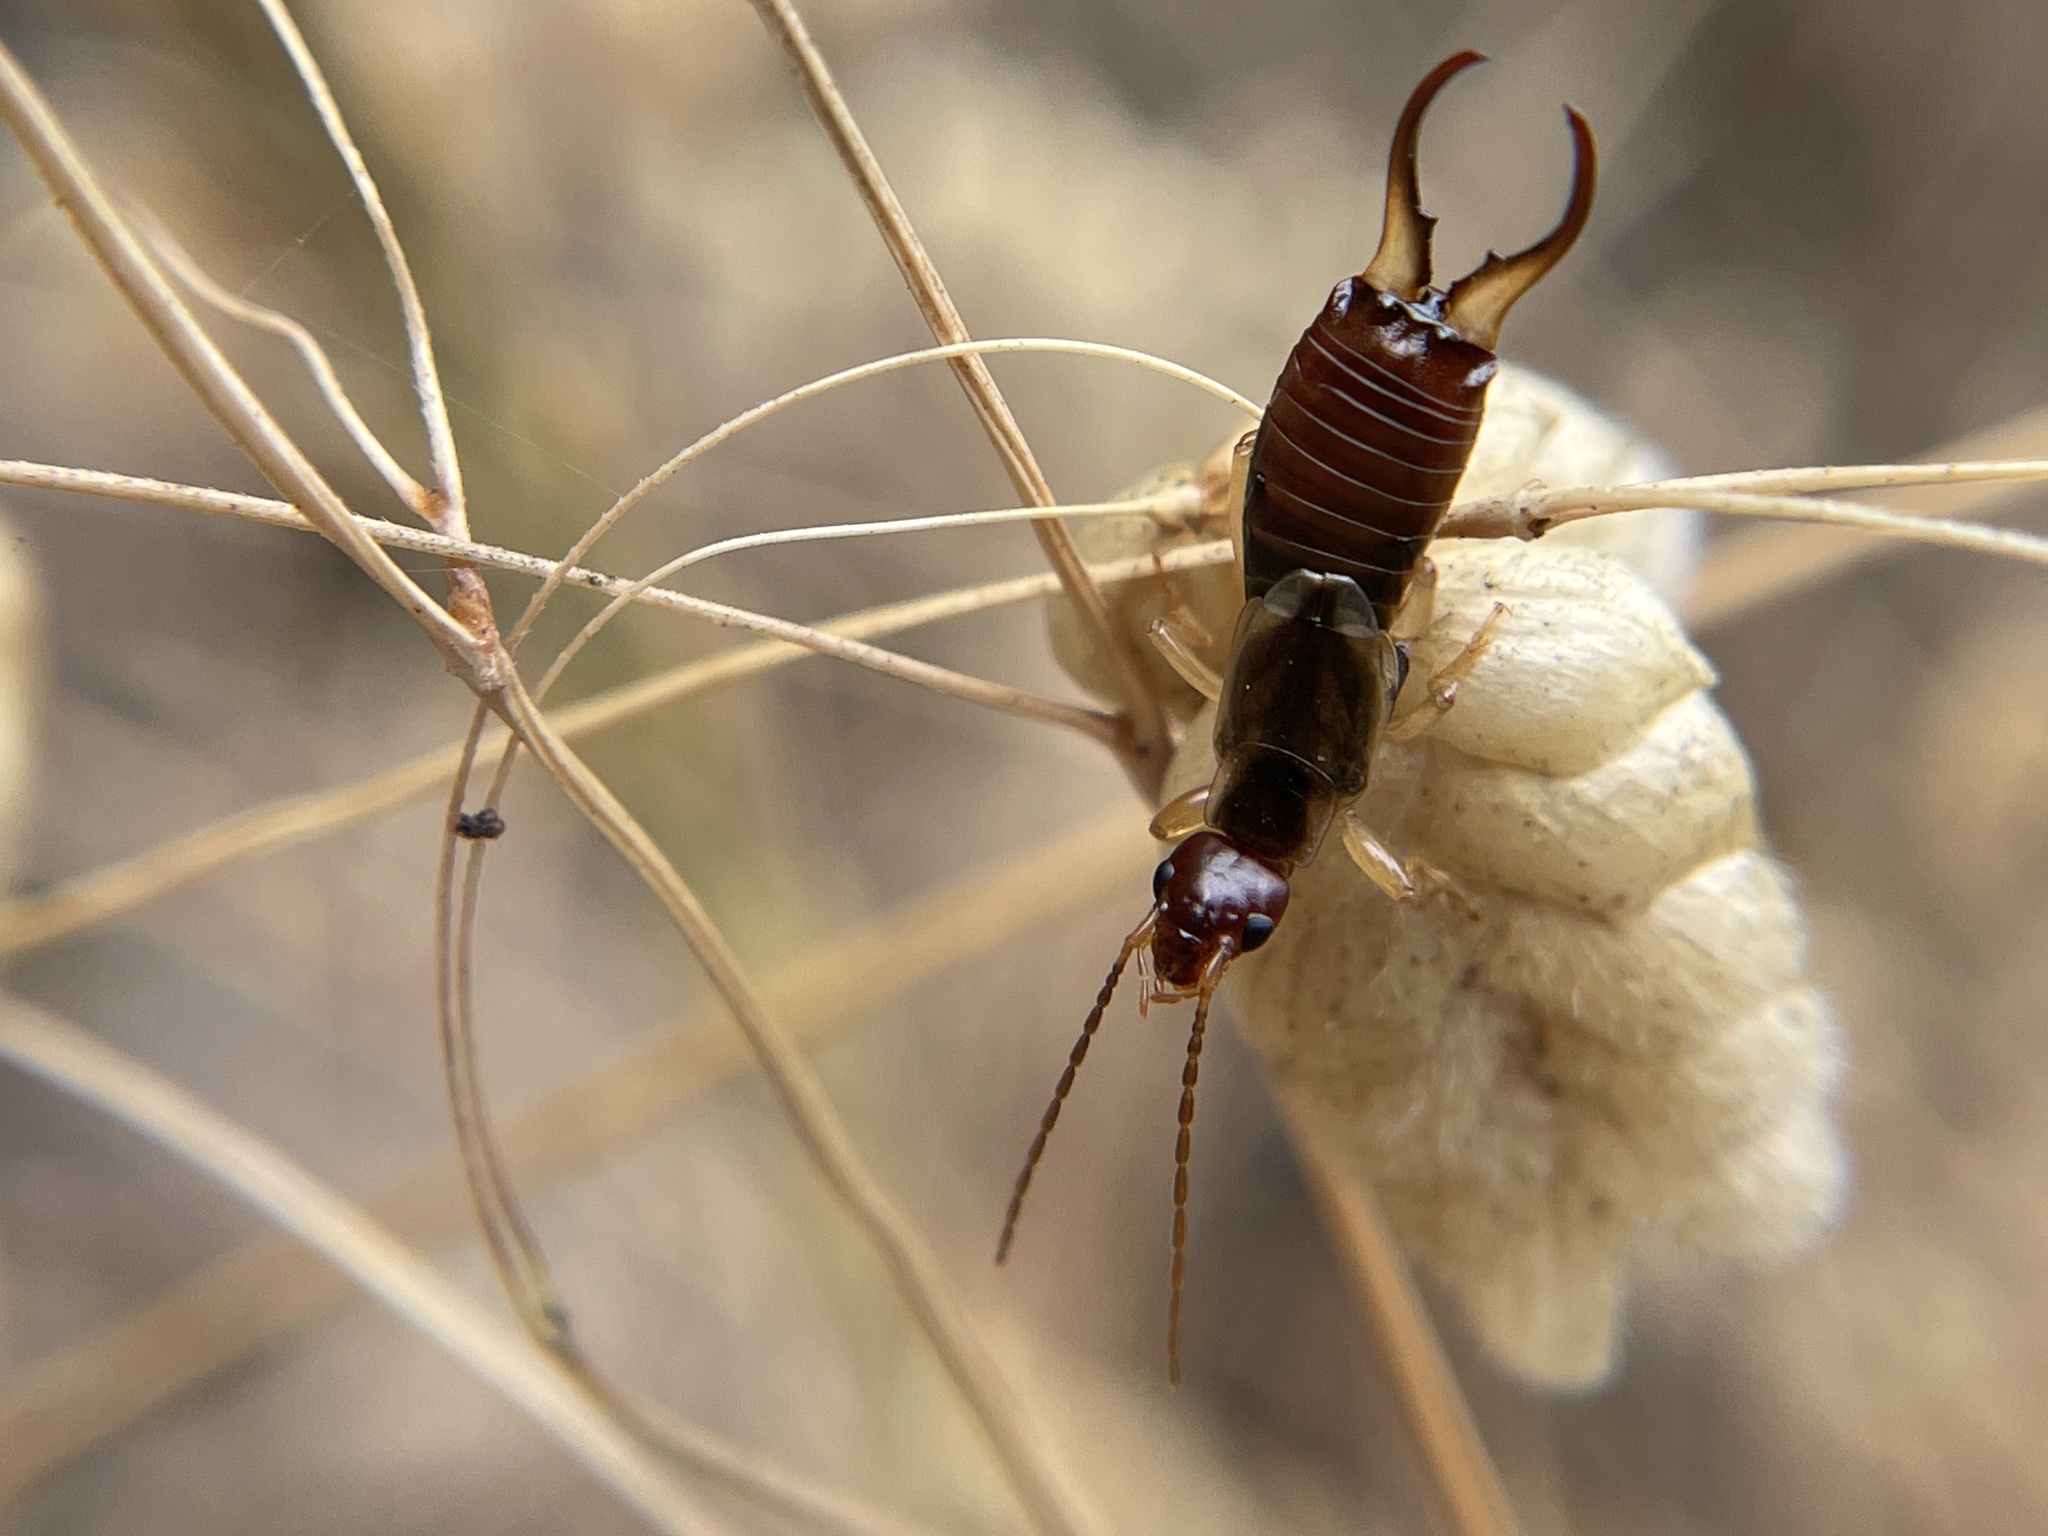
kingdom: Animalia
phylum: Arthropoda
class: Insecta
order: Dermaptera
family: Forficulidae
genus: Forficula
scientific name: Forficula
